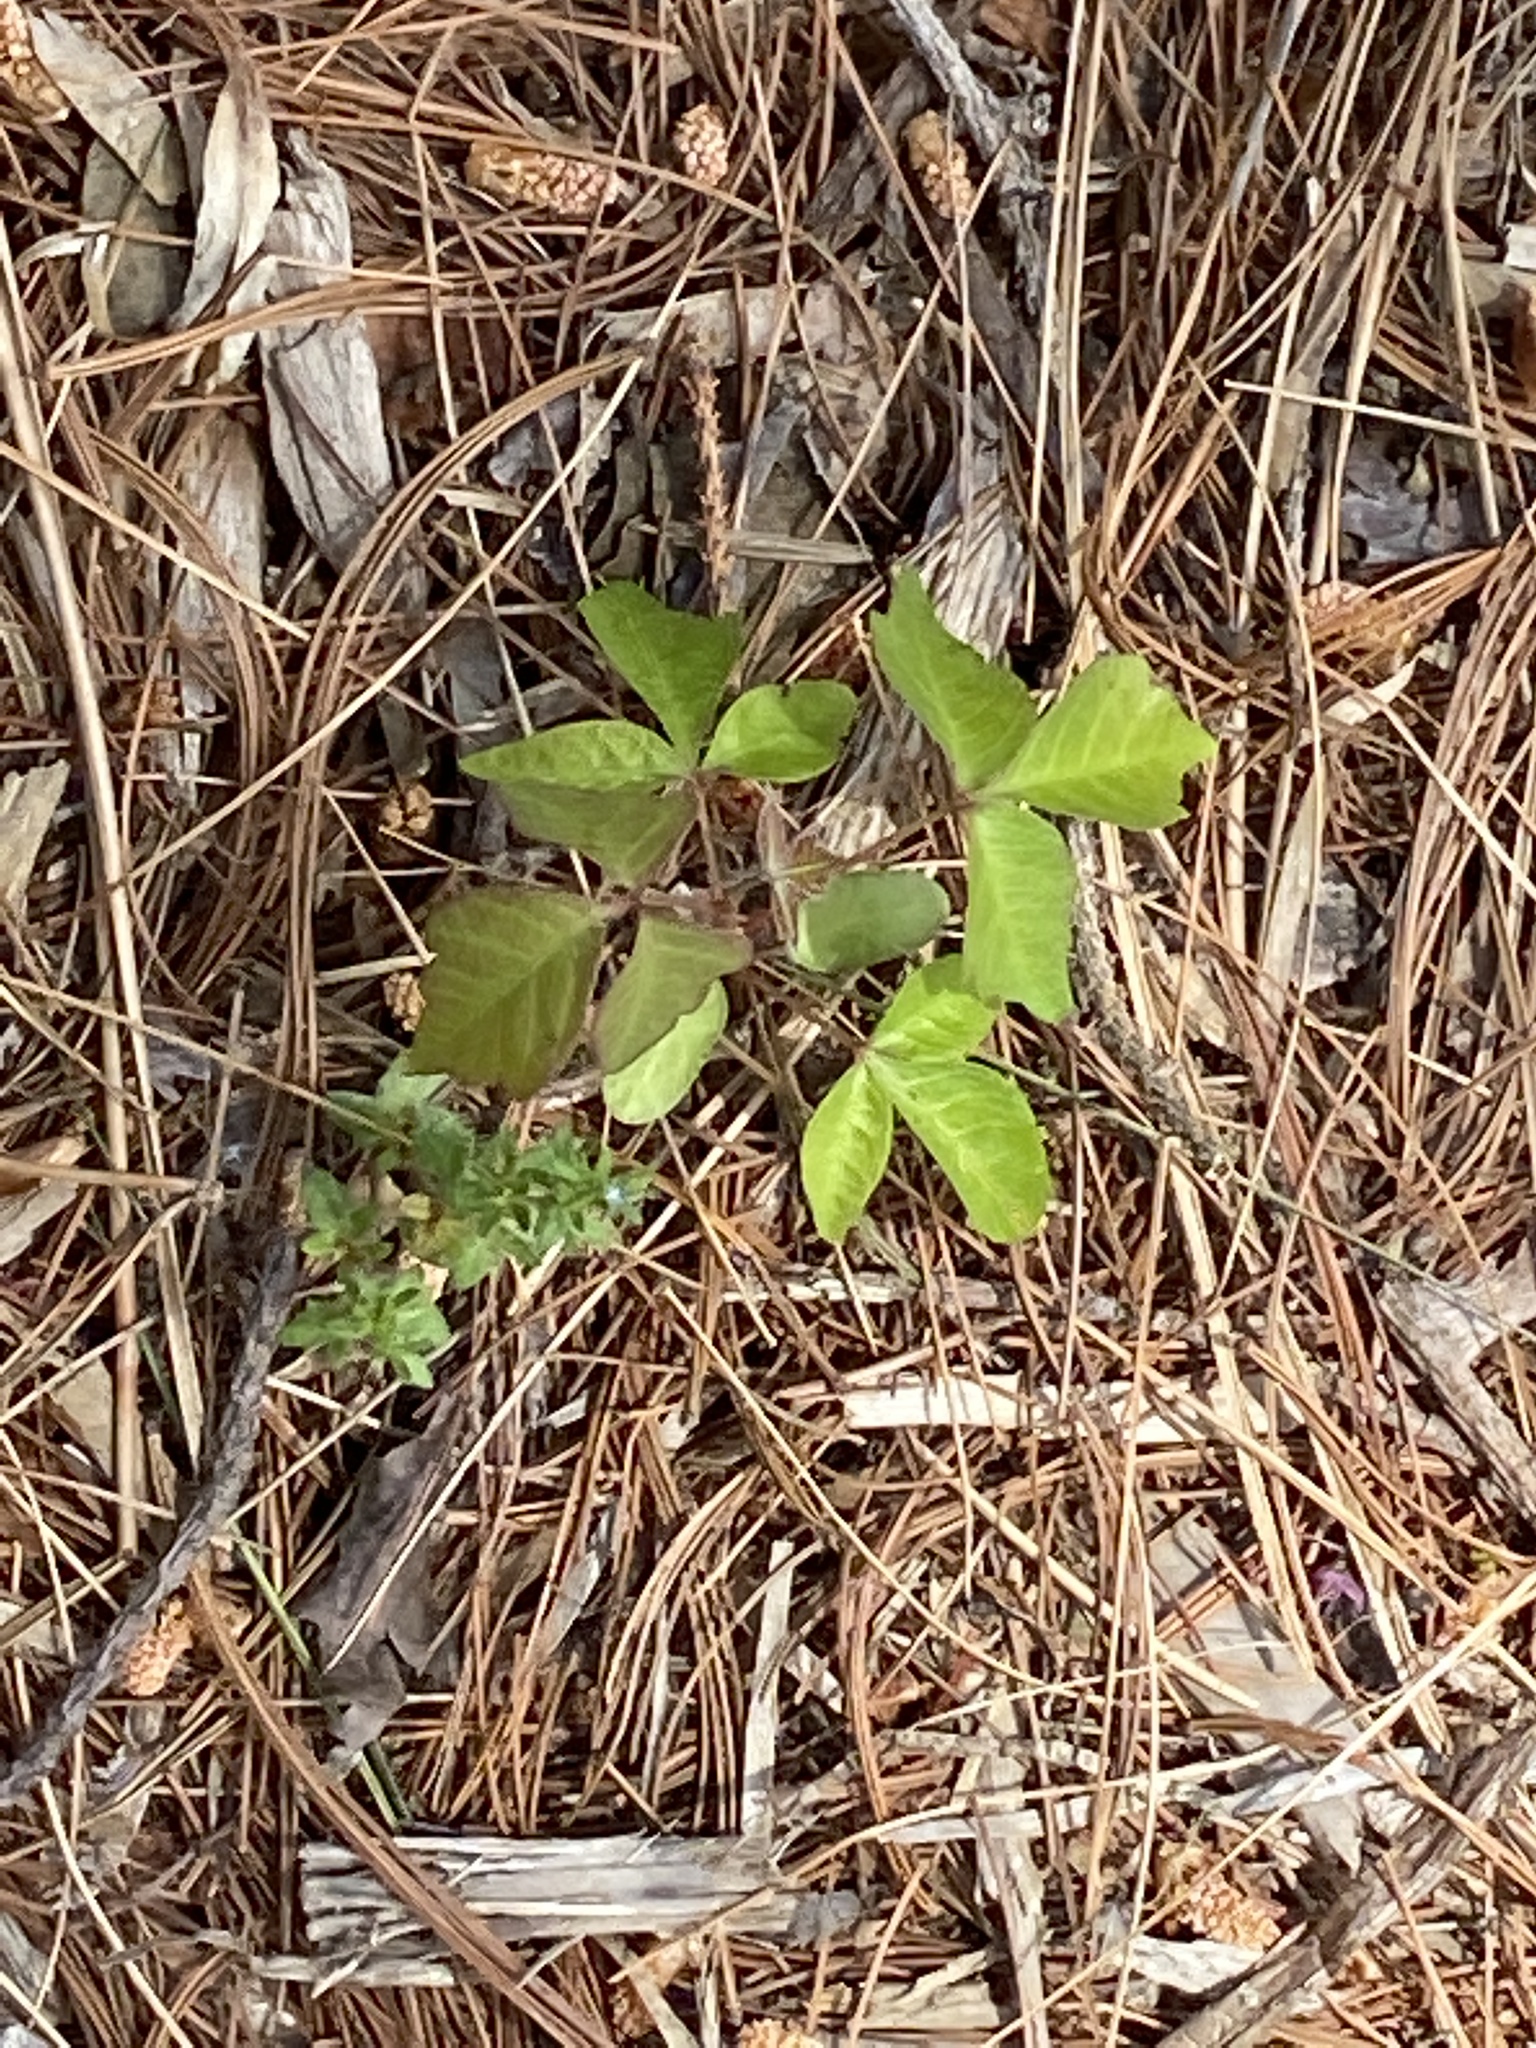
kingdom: Plantae
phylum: Tracheophyta
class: Magnoliopsida
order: Sapindales
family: Anacardiaceae
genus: Toxicodendron
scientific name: Toxicodendron radicans
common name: Poison ivy
